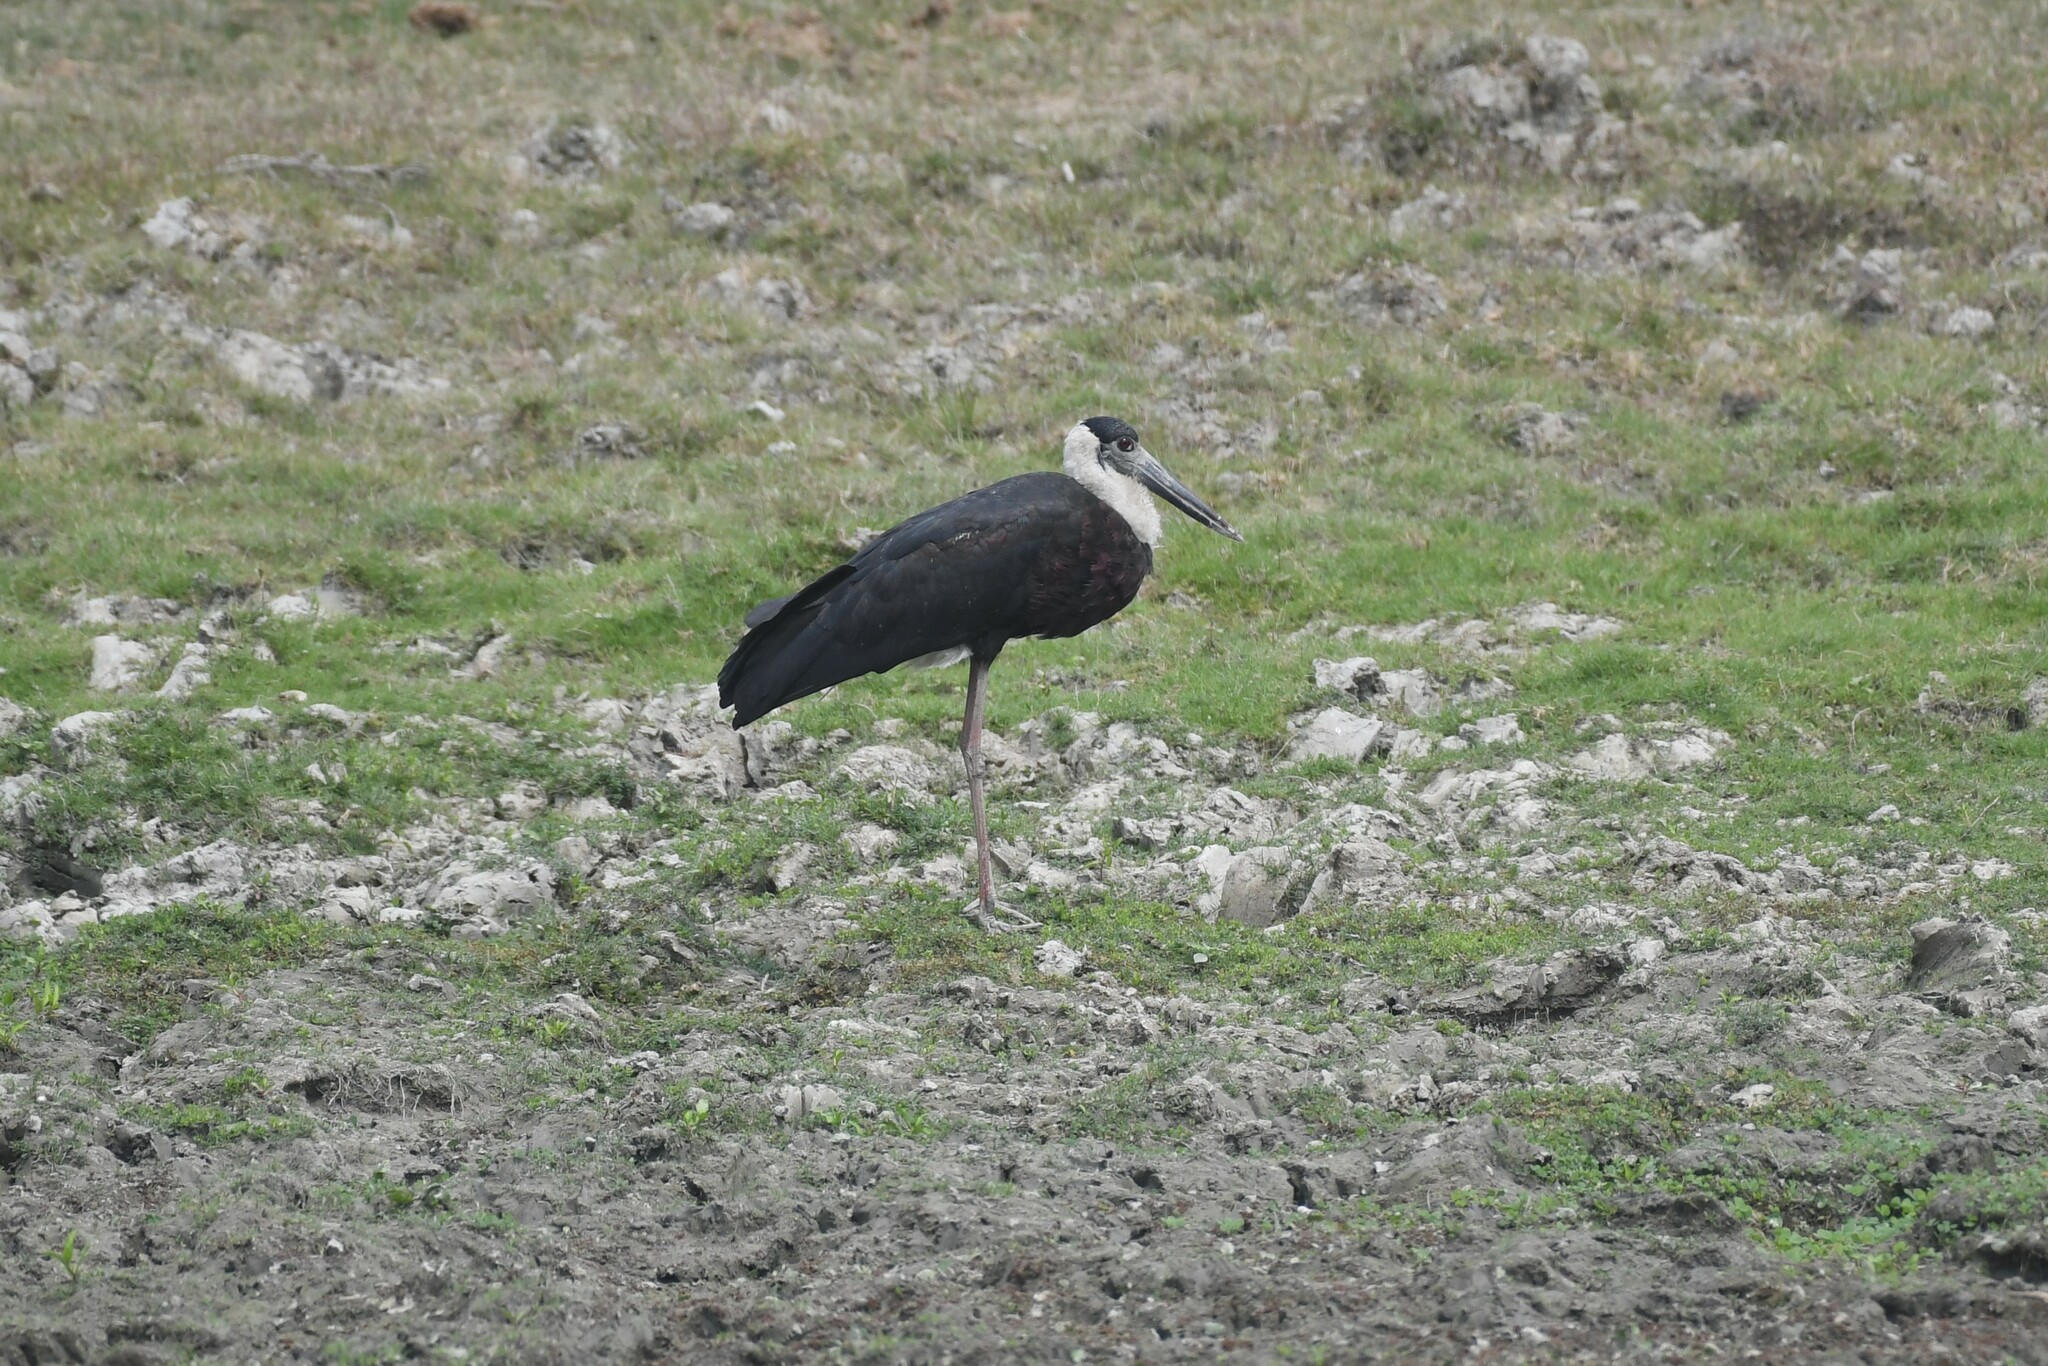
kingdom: Animalia
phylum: Chordata
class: Aves
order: Ciconiiformes
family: Ciconiidae
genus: Ciconia
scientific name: Ciconia episcopus
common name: Woolly-necked stork
